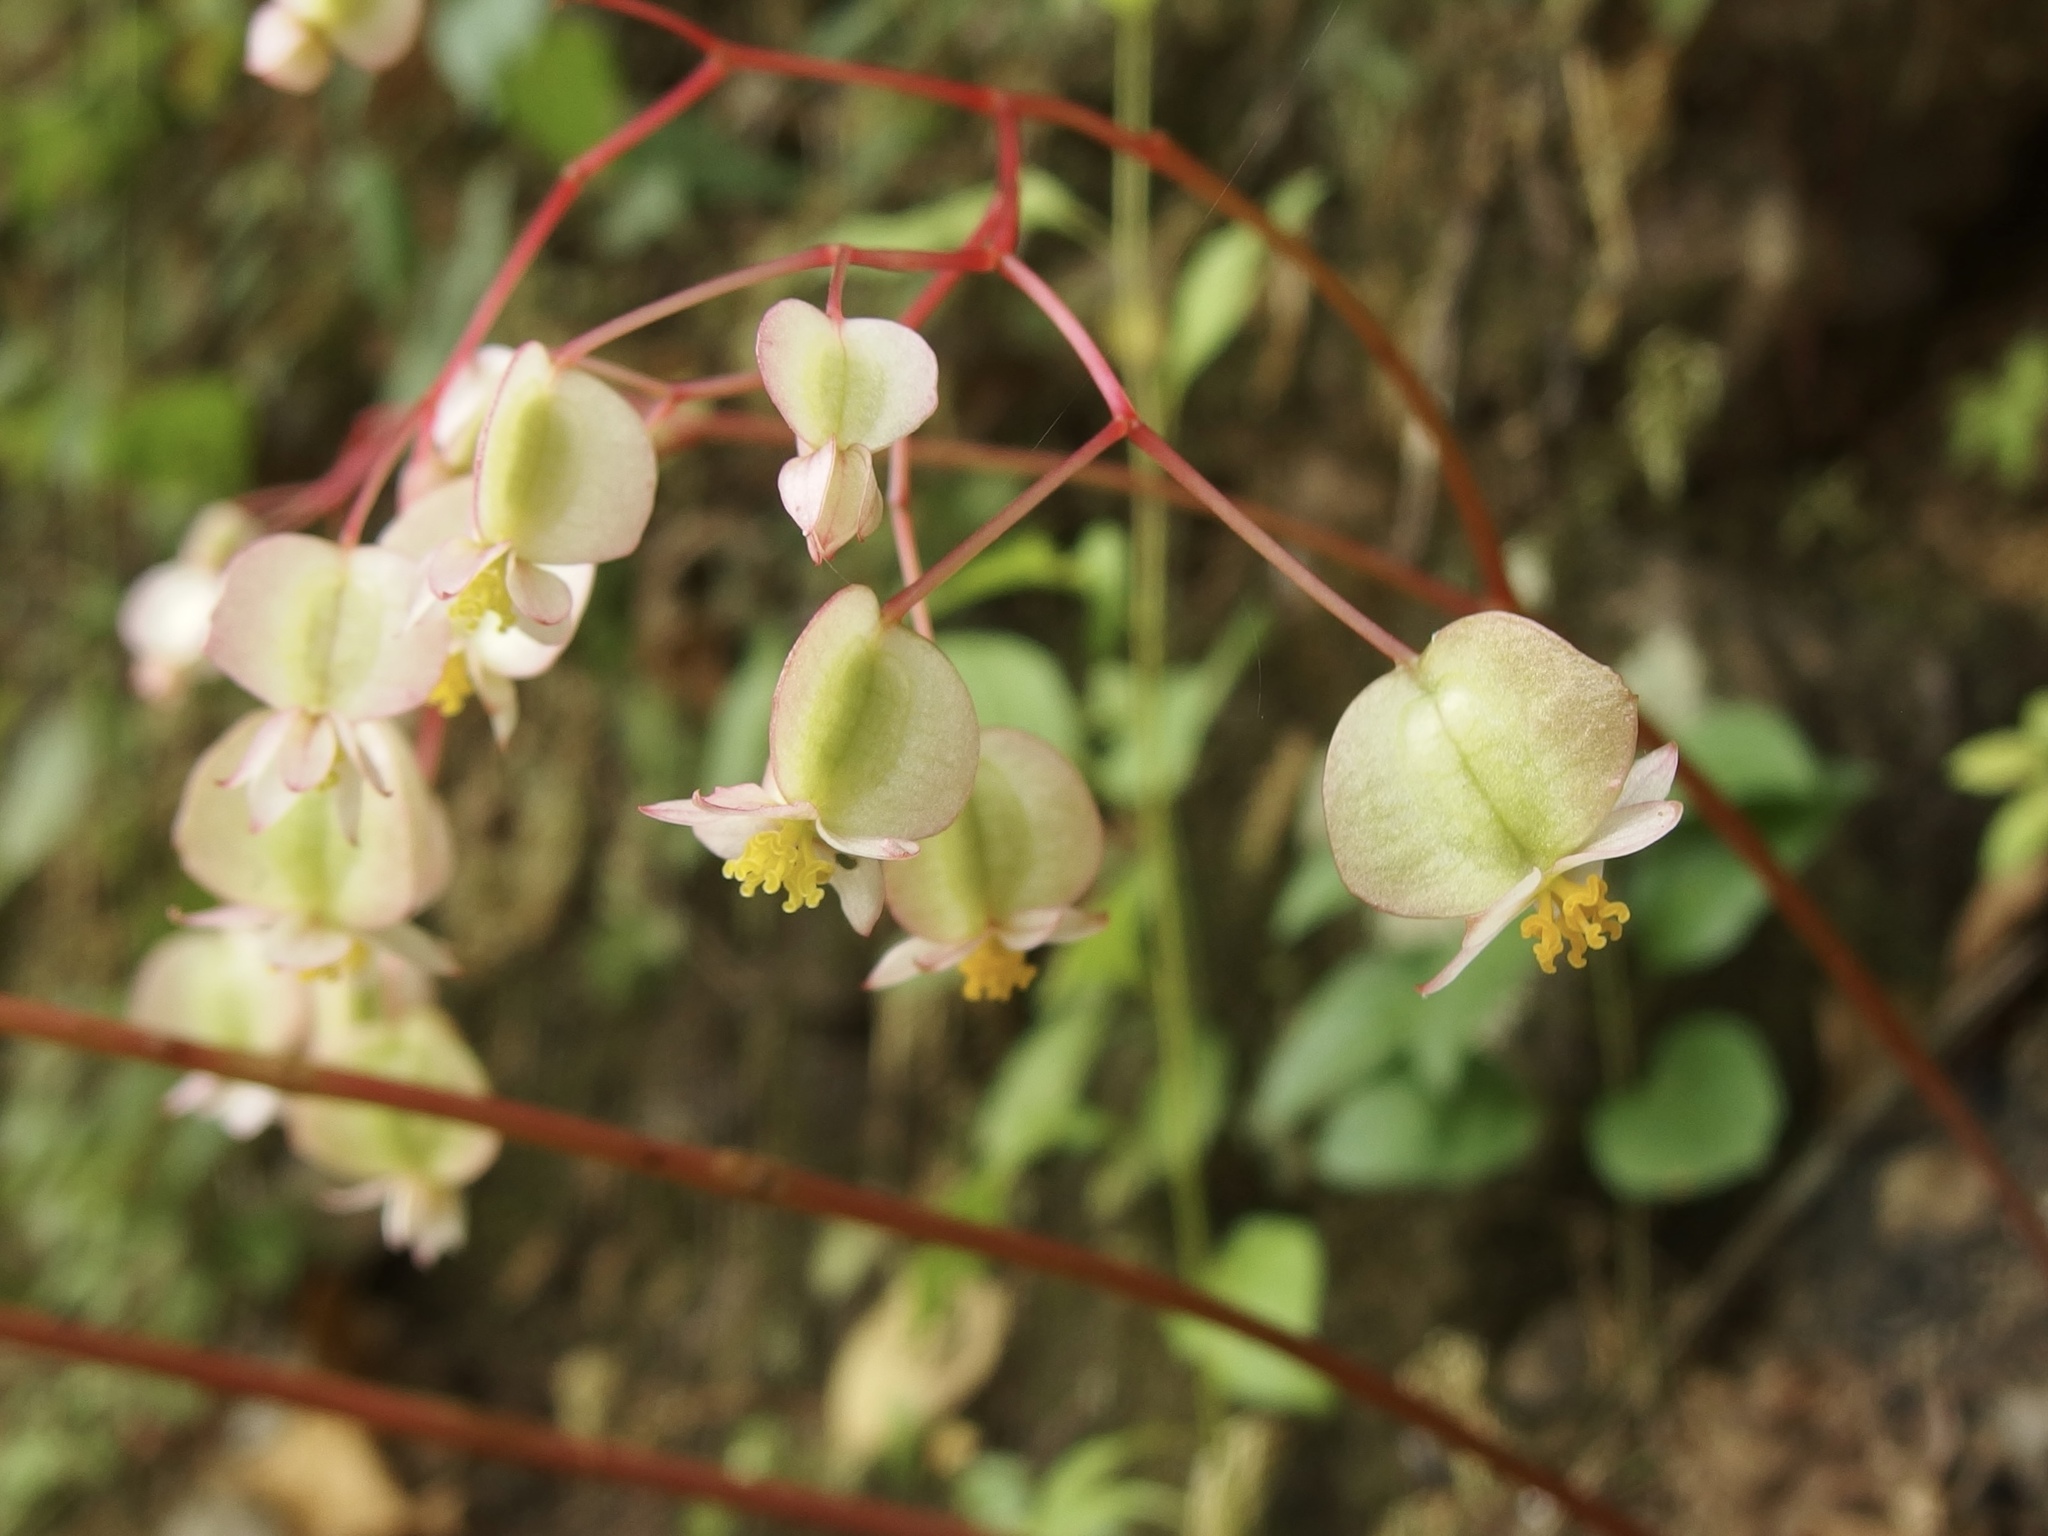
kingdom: Plantae
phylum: Tracheophyta
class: Magnoliopsida
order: Cucurbitales
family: Begoniaceae
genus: Begonia
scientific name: Begonia serotina
